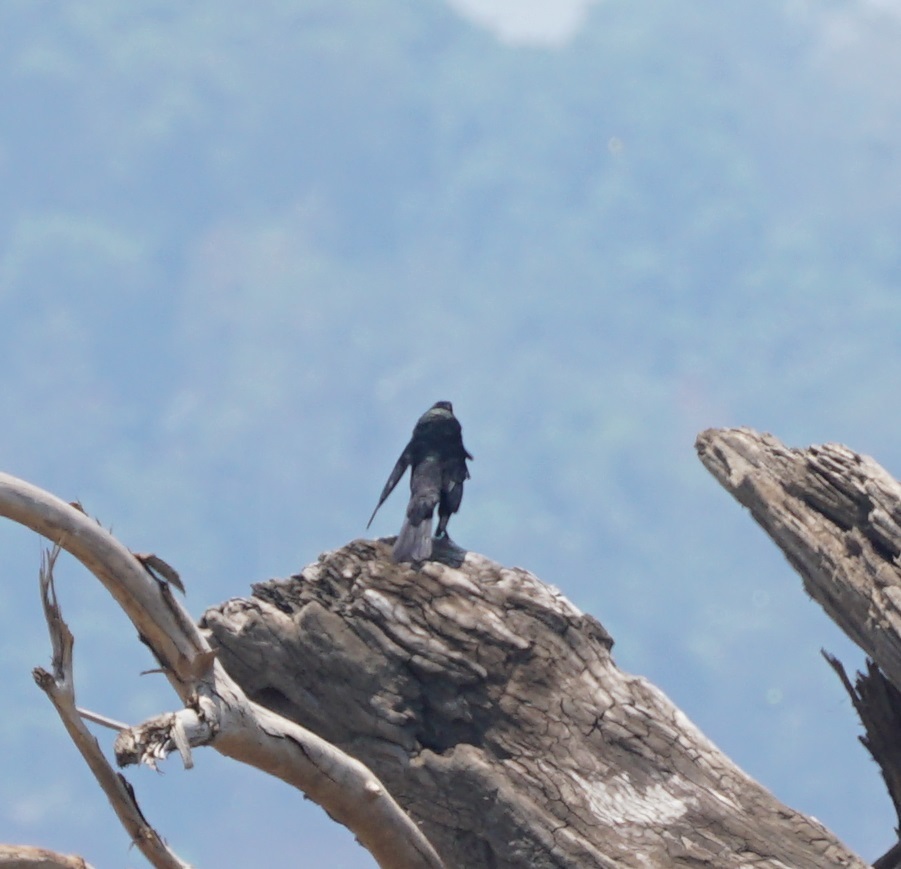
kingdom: Animalia
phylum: Chordata
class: Aves
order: Passeriformes
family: Icteridae
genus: Molothrus
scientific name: Molothrus oryzivorus
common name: Giant cowbird
